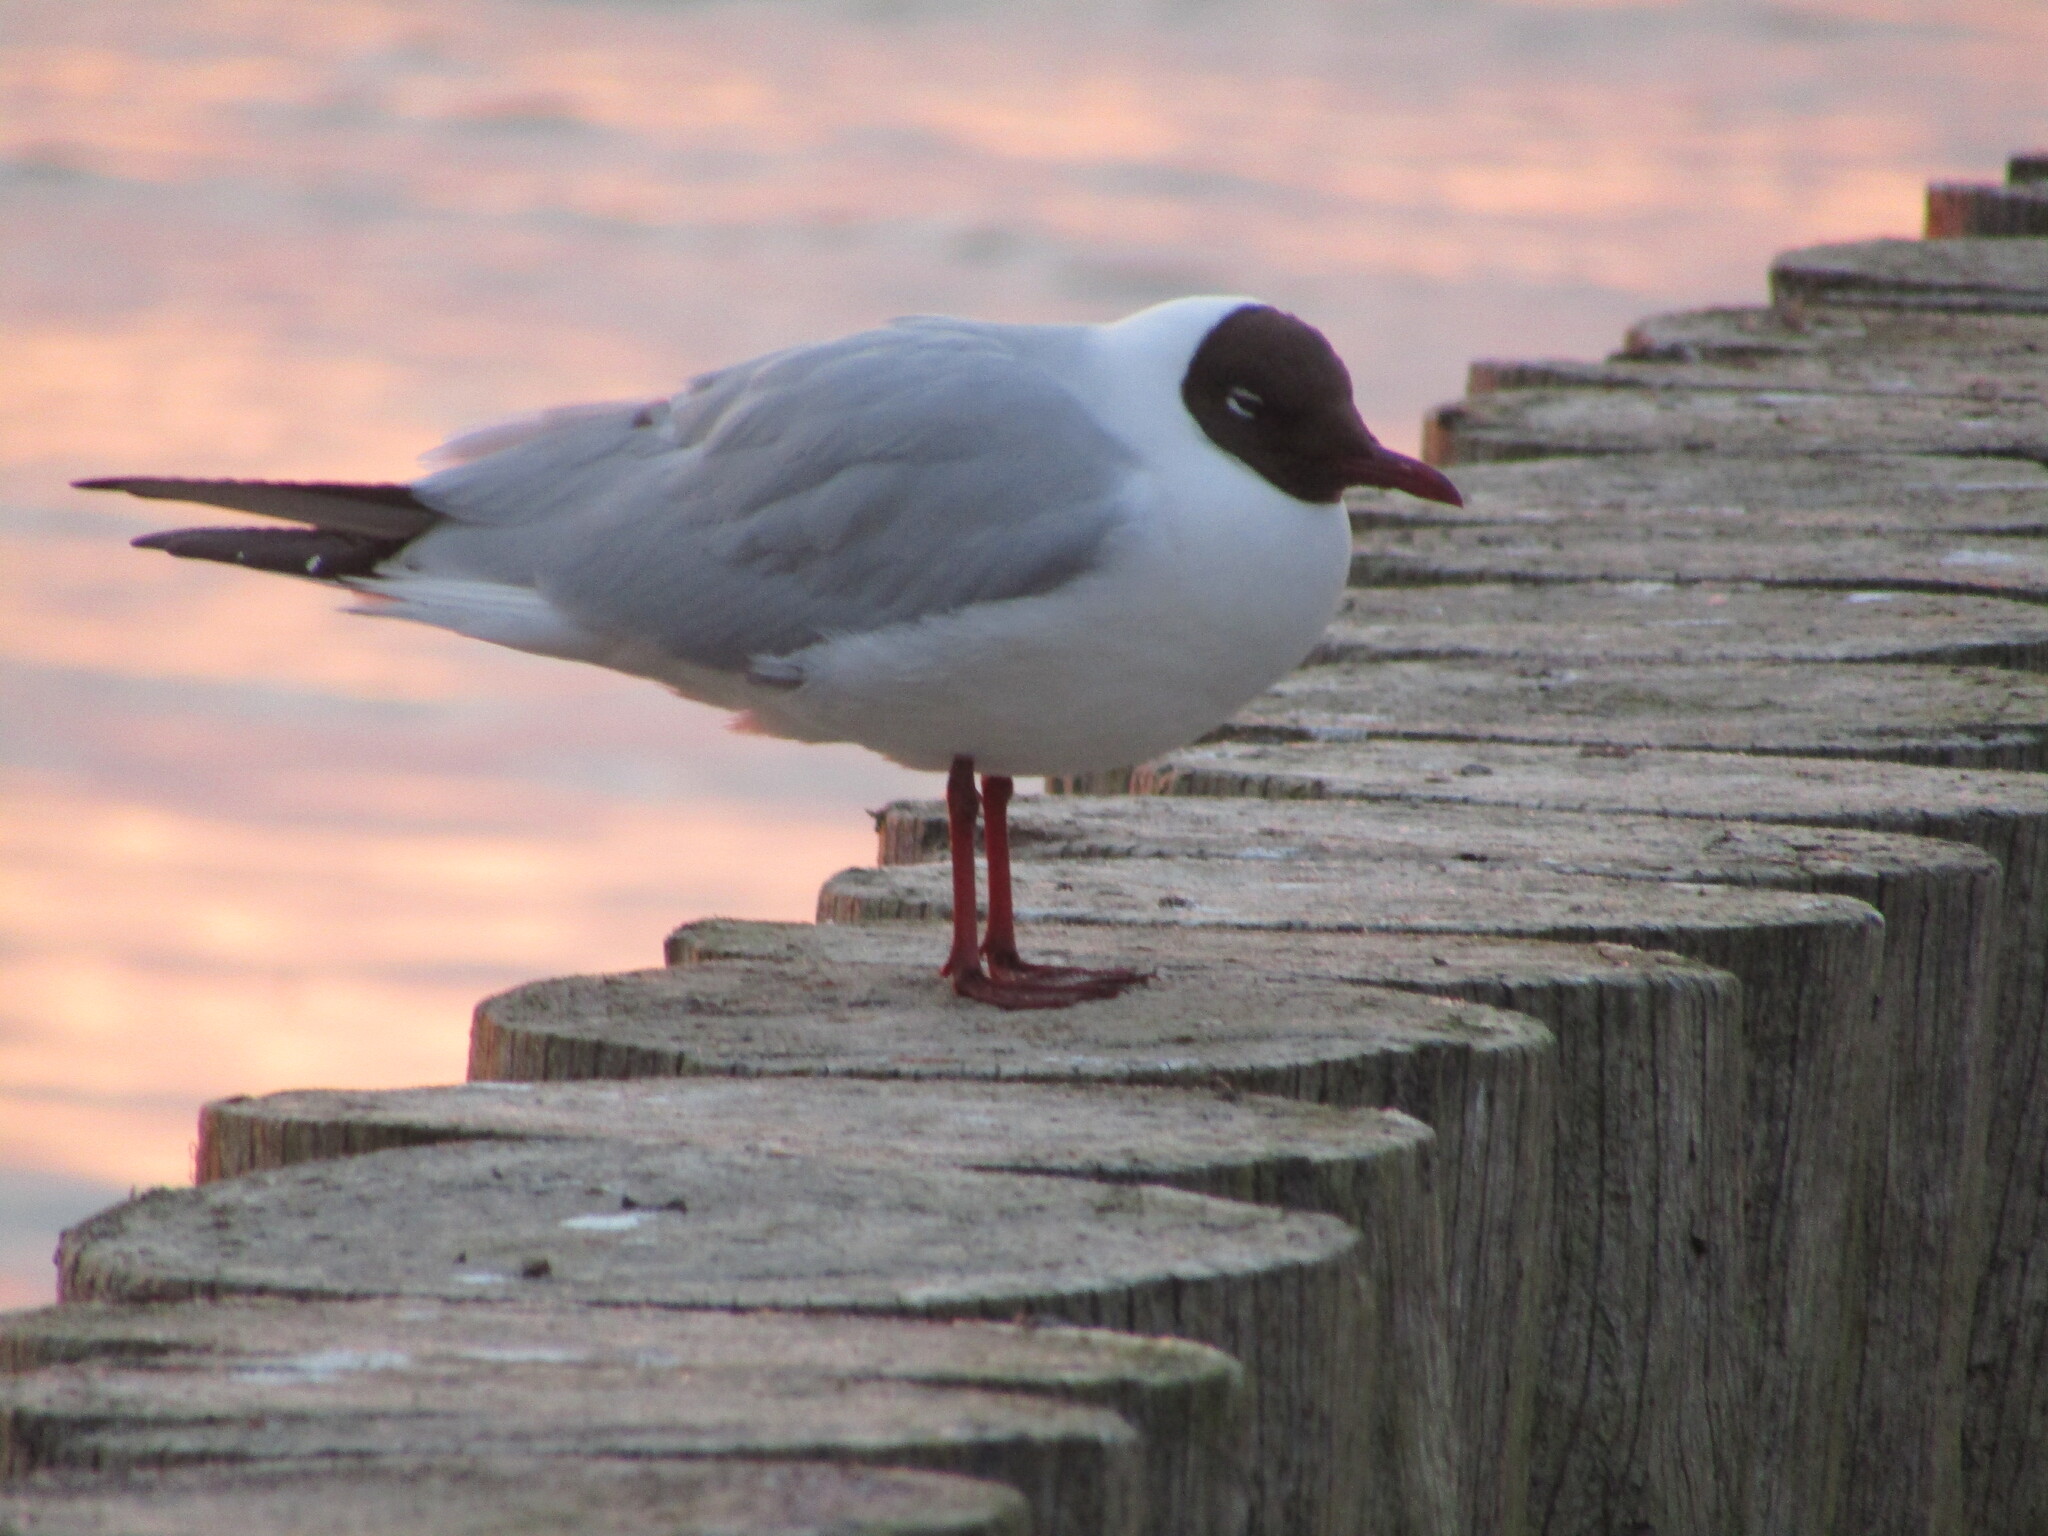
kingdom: Animalia
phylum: Chordata
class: Aves
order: Charadriiformes
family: Laridae
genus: Chroicocephalus
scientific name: Chroicocephalus ridibundus
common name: Black-headed gull
